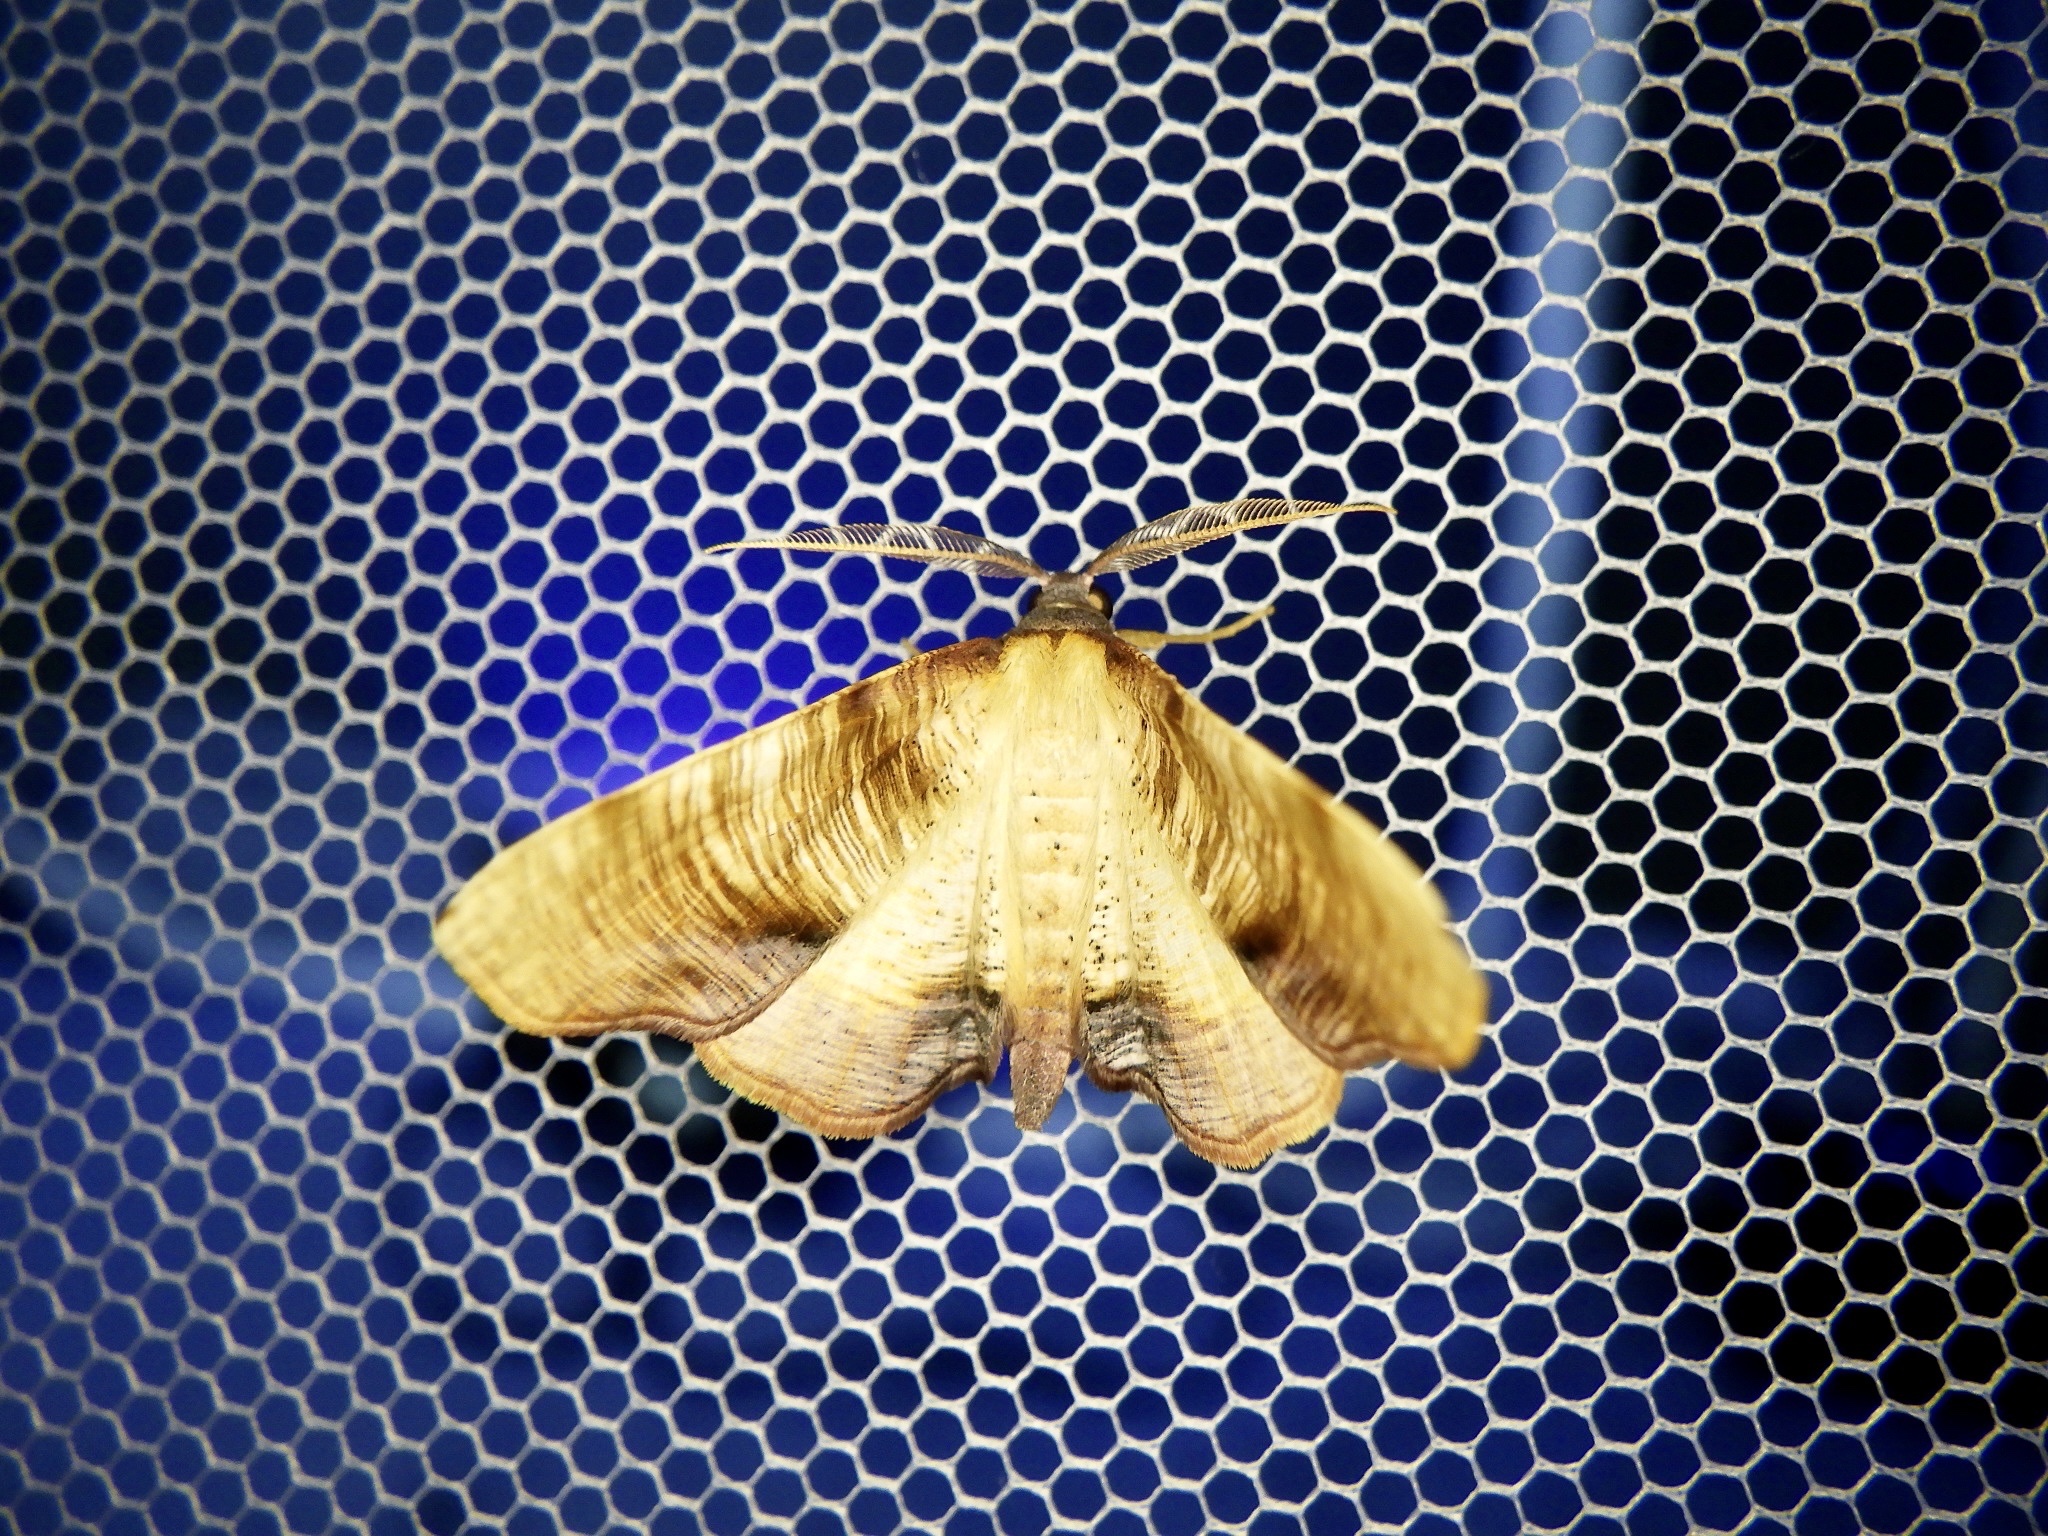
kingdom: Animalia
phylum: Arthropoda
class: Insecta
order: Lepidoptera
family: Geometridae
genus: Plagodis
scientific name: Plagodis dolabraria
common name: Scorched wing
